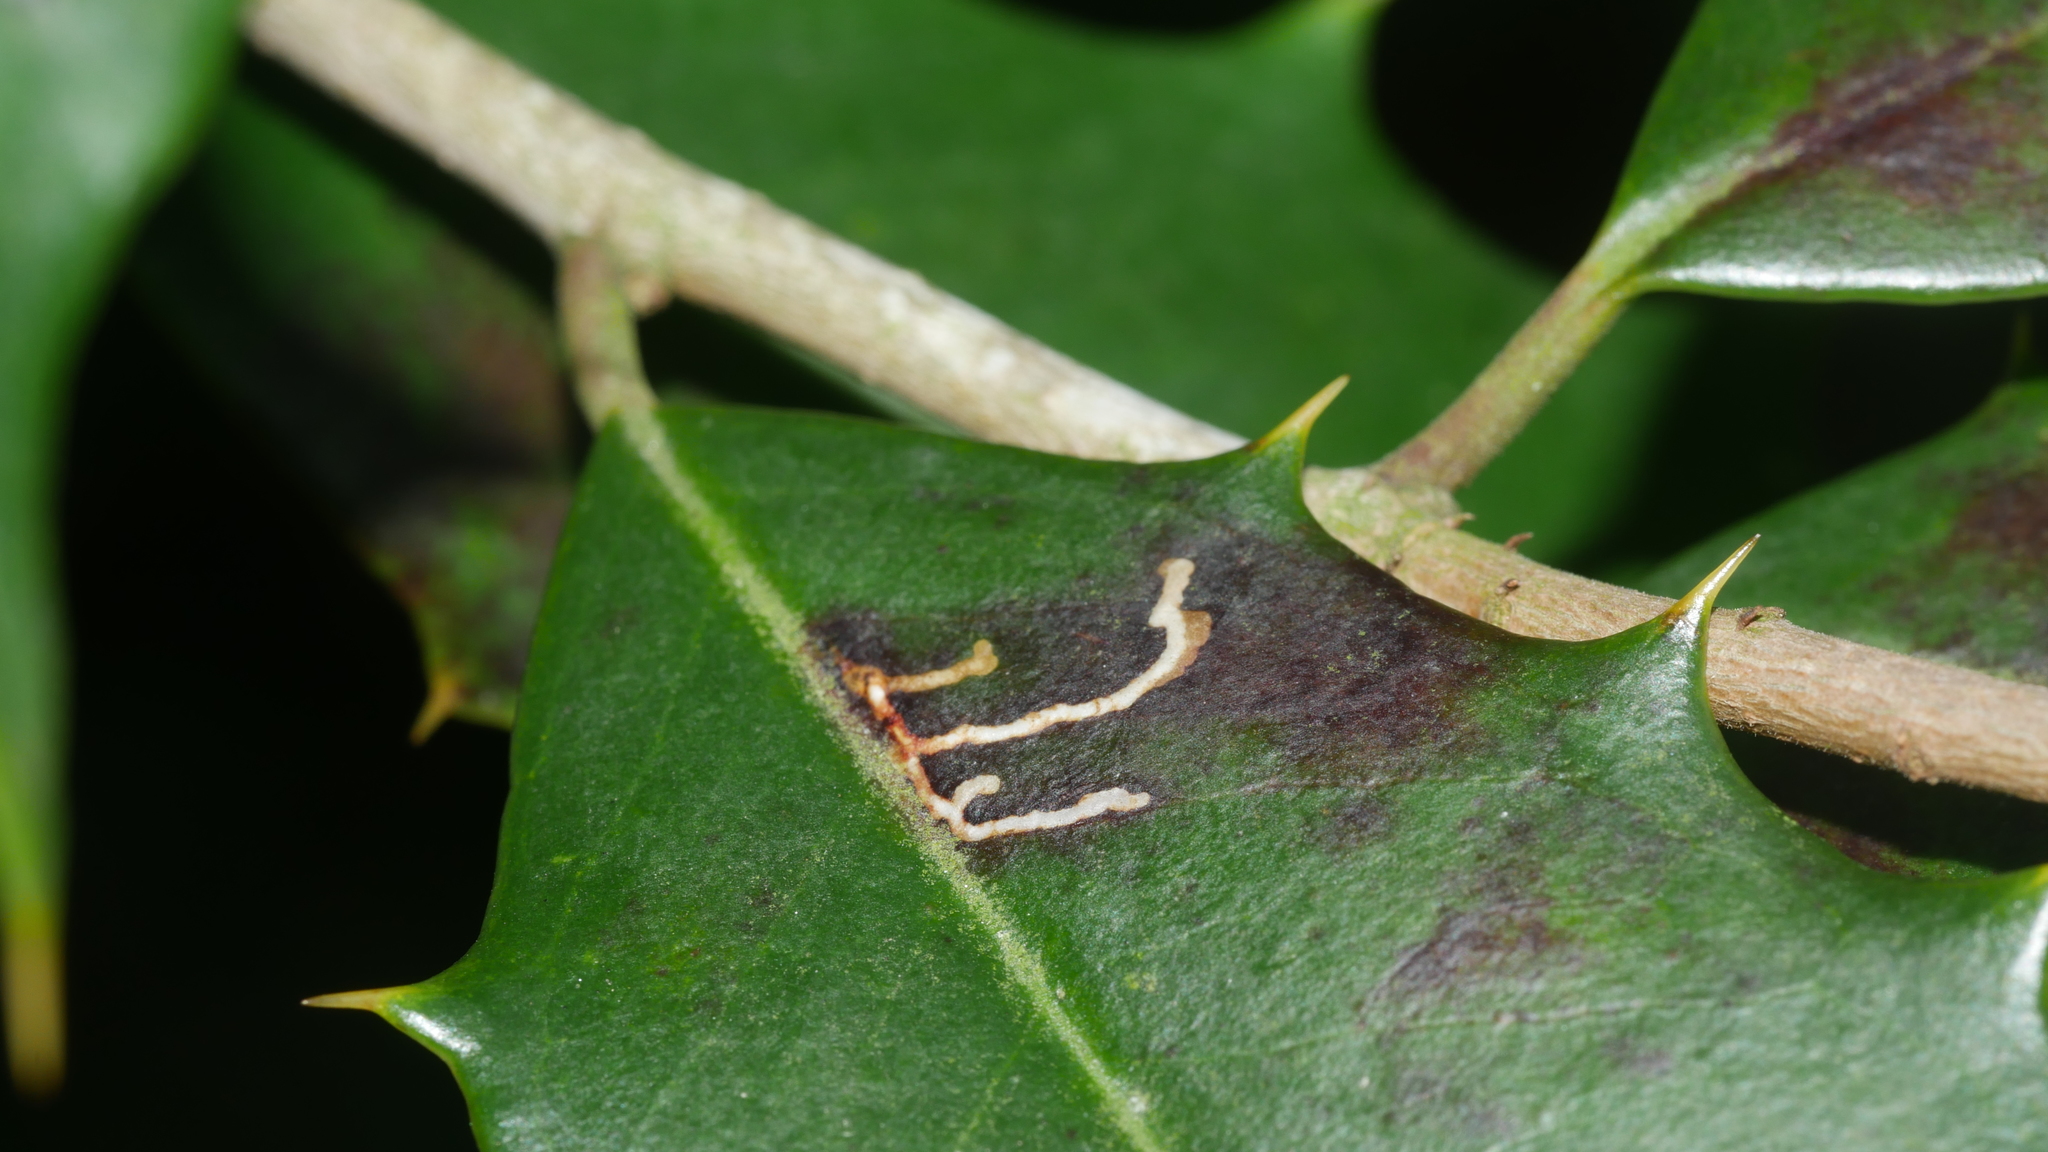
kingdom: Animalia
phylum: Arthropoda
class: Insecta
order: Lepidoptera
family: Tortricidae
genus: Rhopobota
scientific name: Rhopobota
